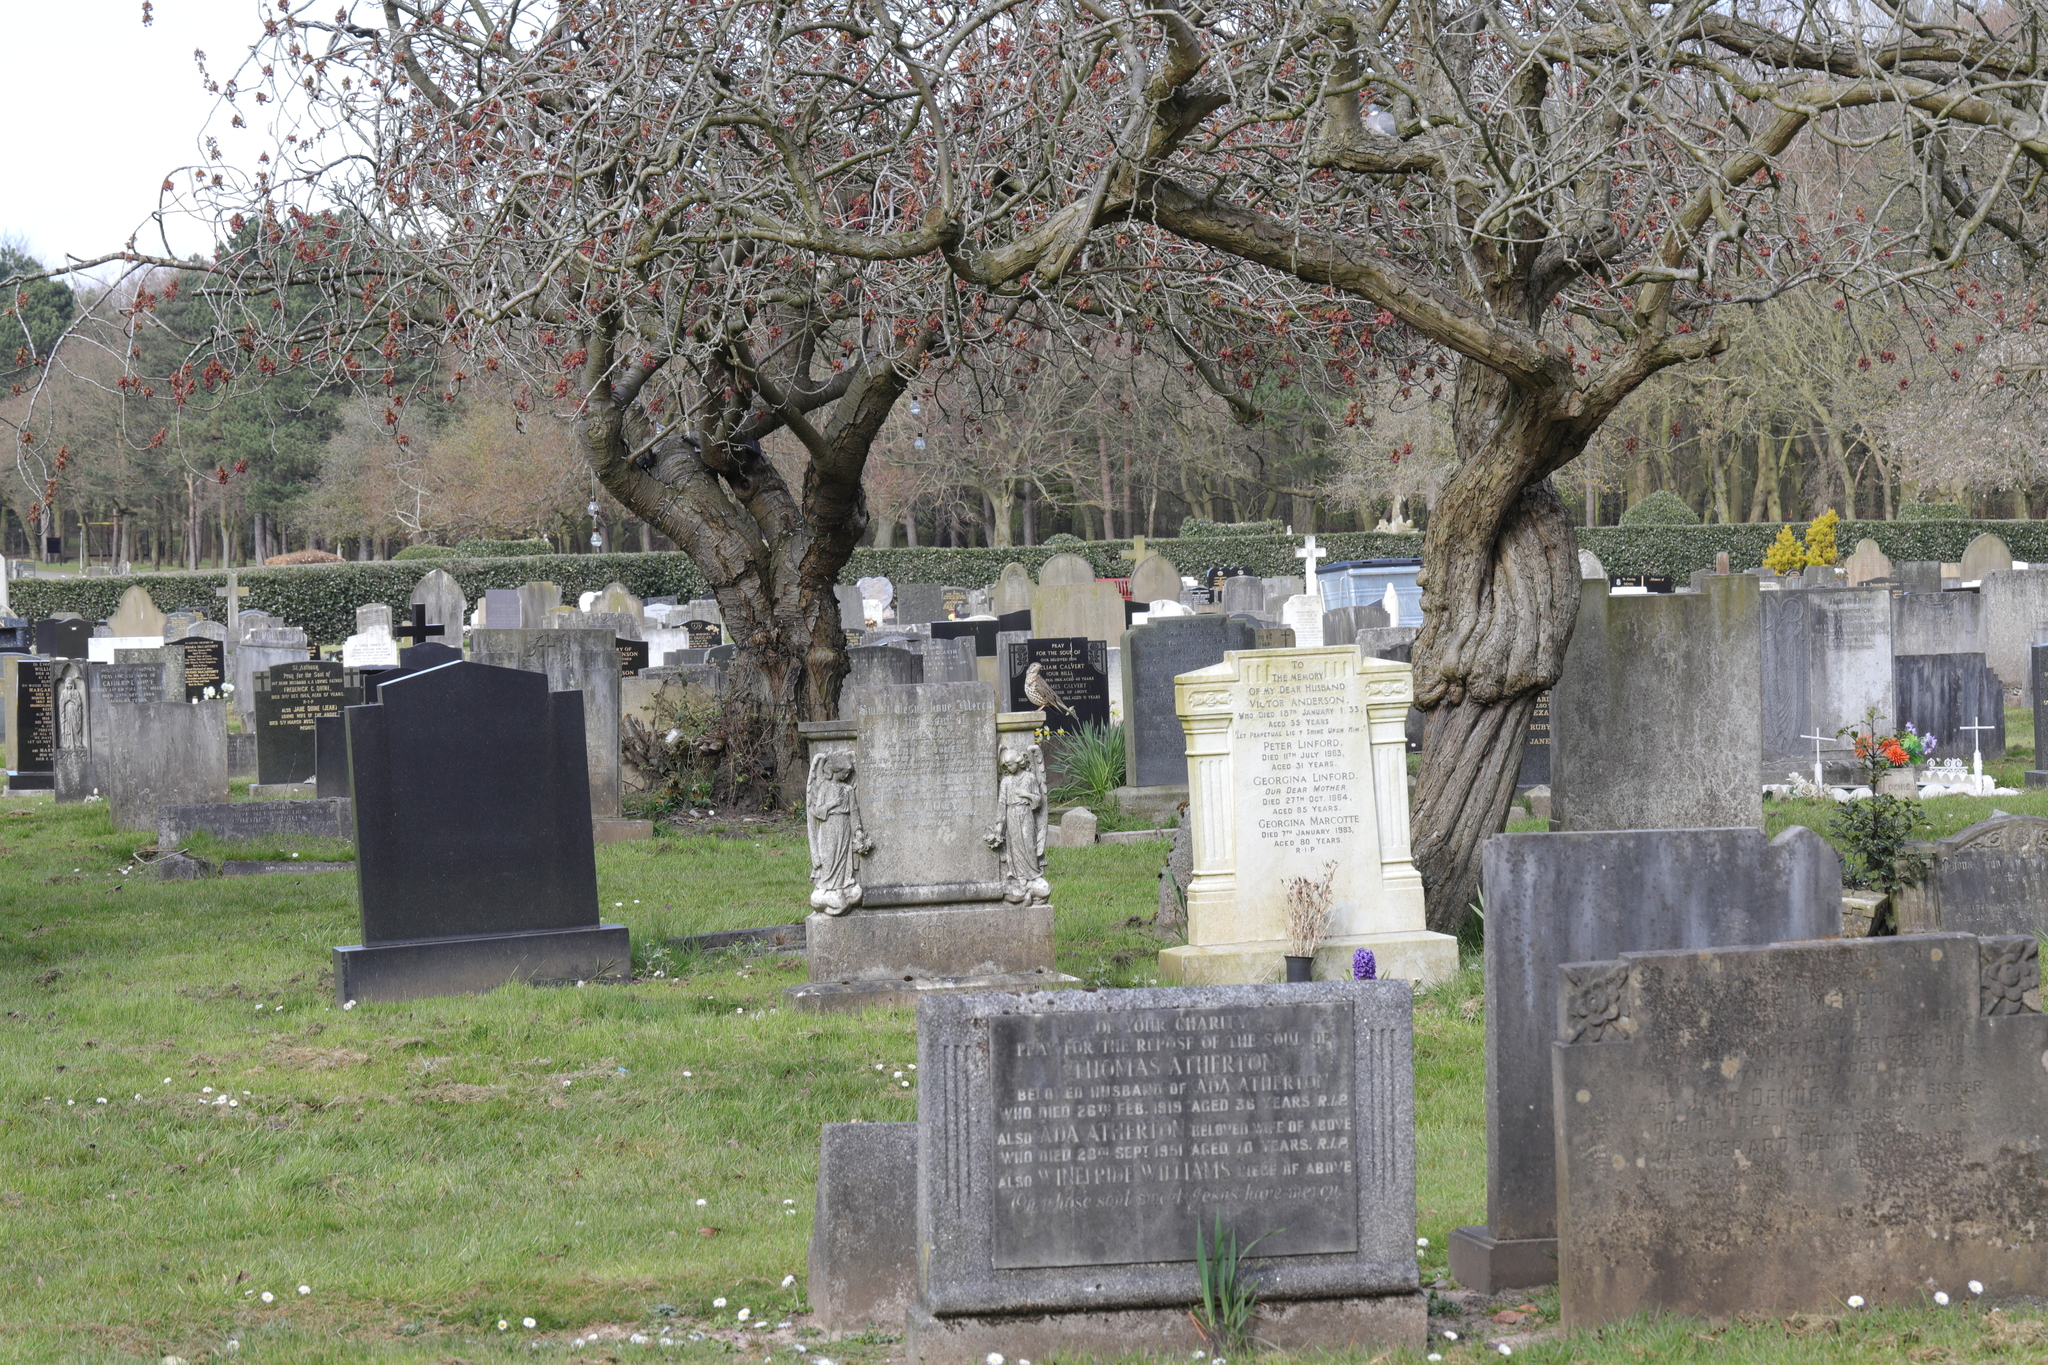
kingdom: Animalia
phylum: Chordata
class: Aves
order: Passeriformes
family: Turdidae
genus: Turdus
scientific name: Turdus viscivorus
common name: Mistle thrush
